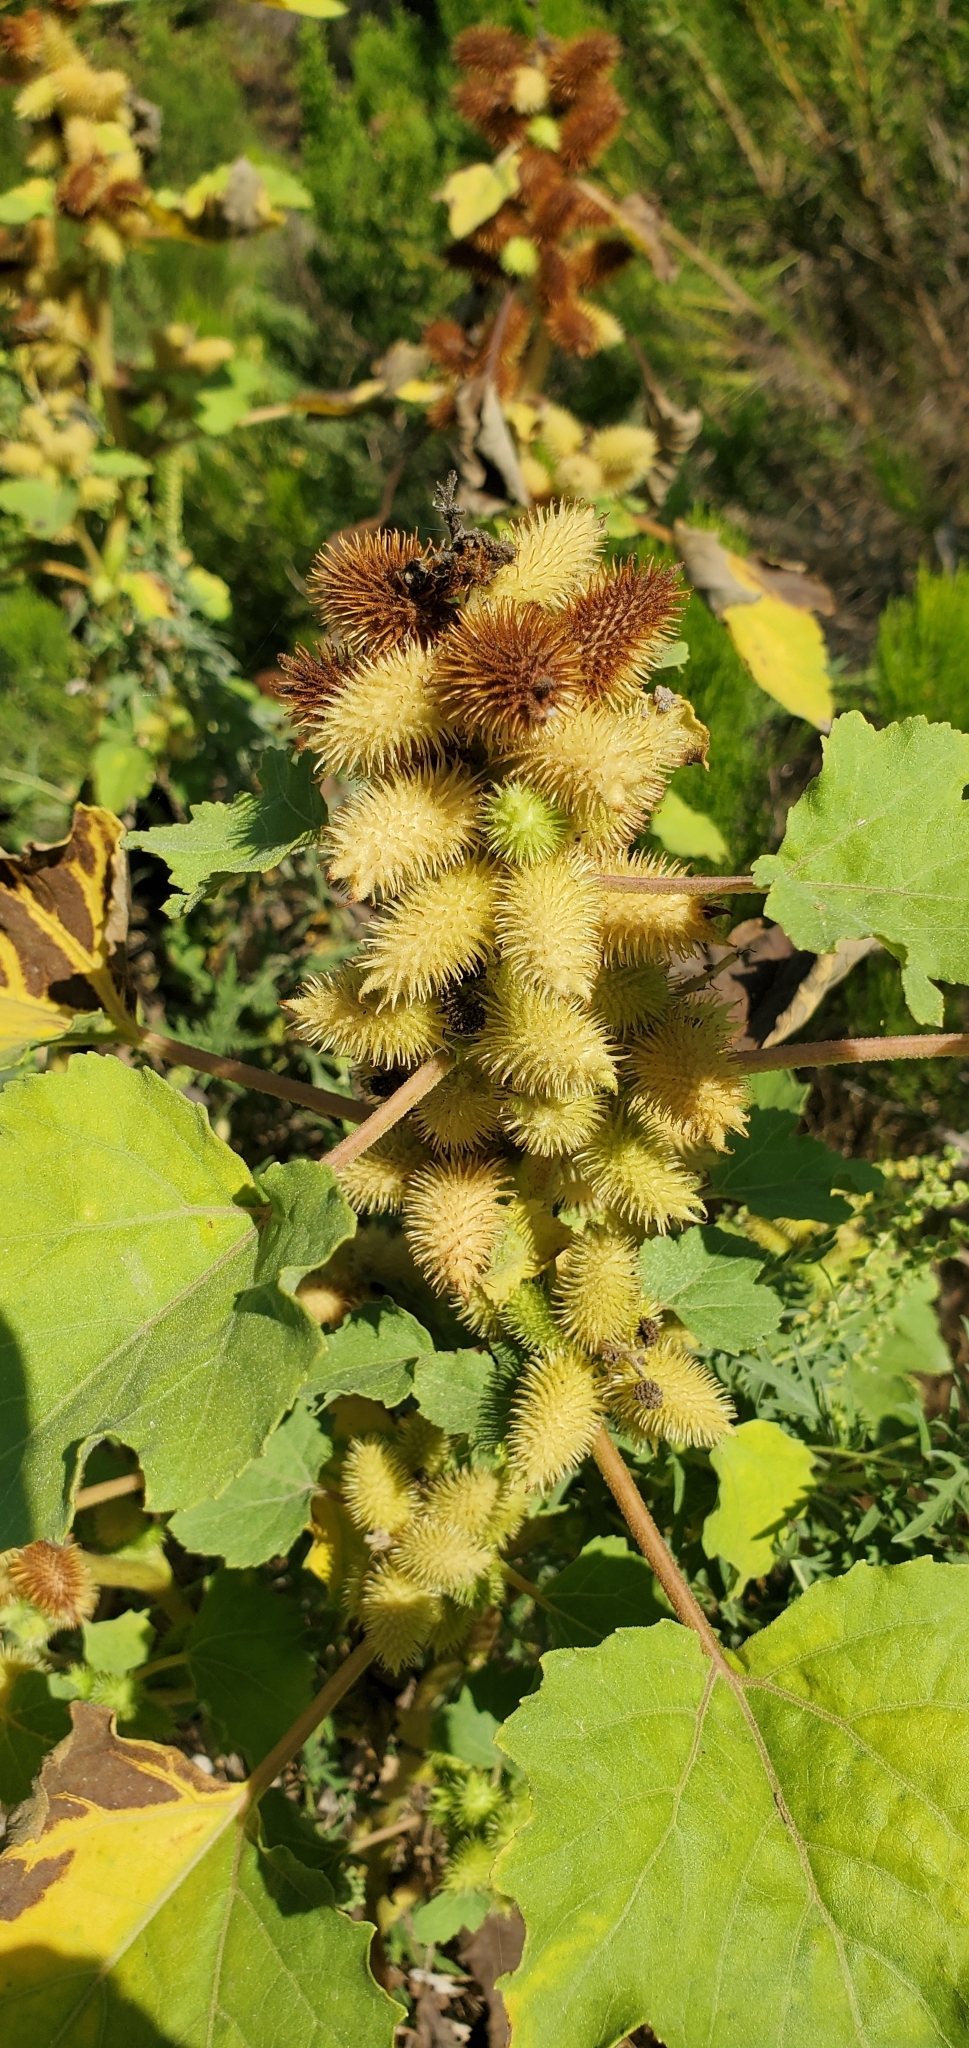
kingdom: Plantae
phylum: Tracheophyta
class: Magnoliopsida
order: Asterales
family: Asteraceae
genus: Xanthium
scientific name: Xanthium strumarium
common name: Rough cocklebur
